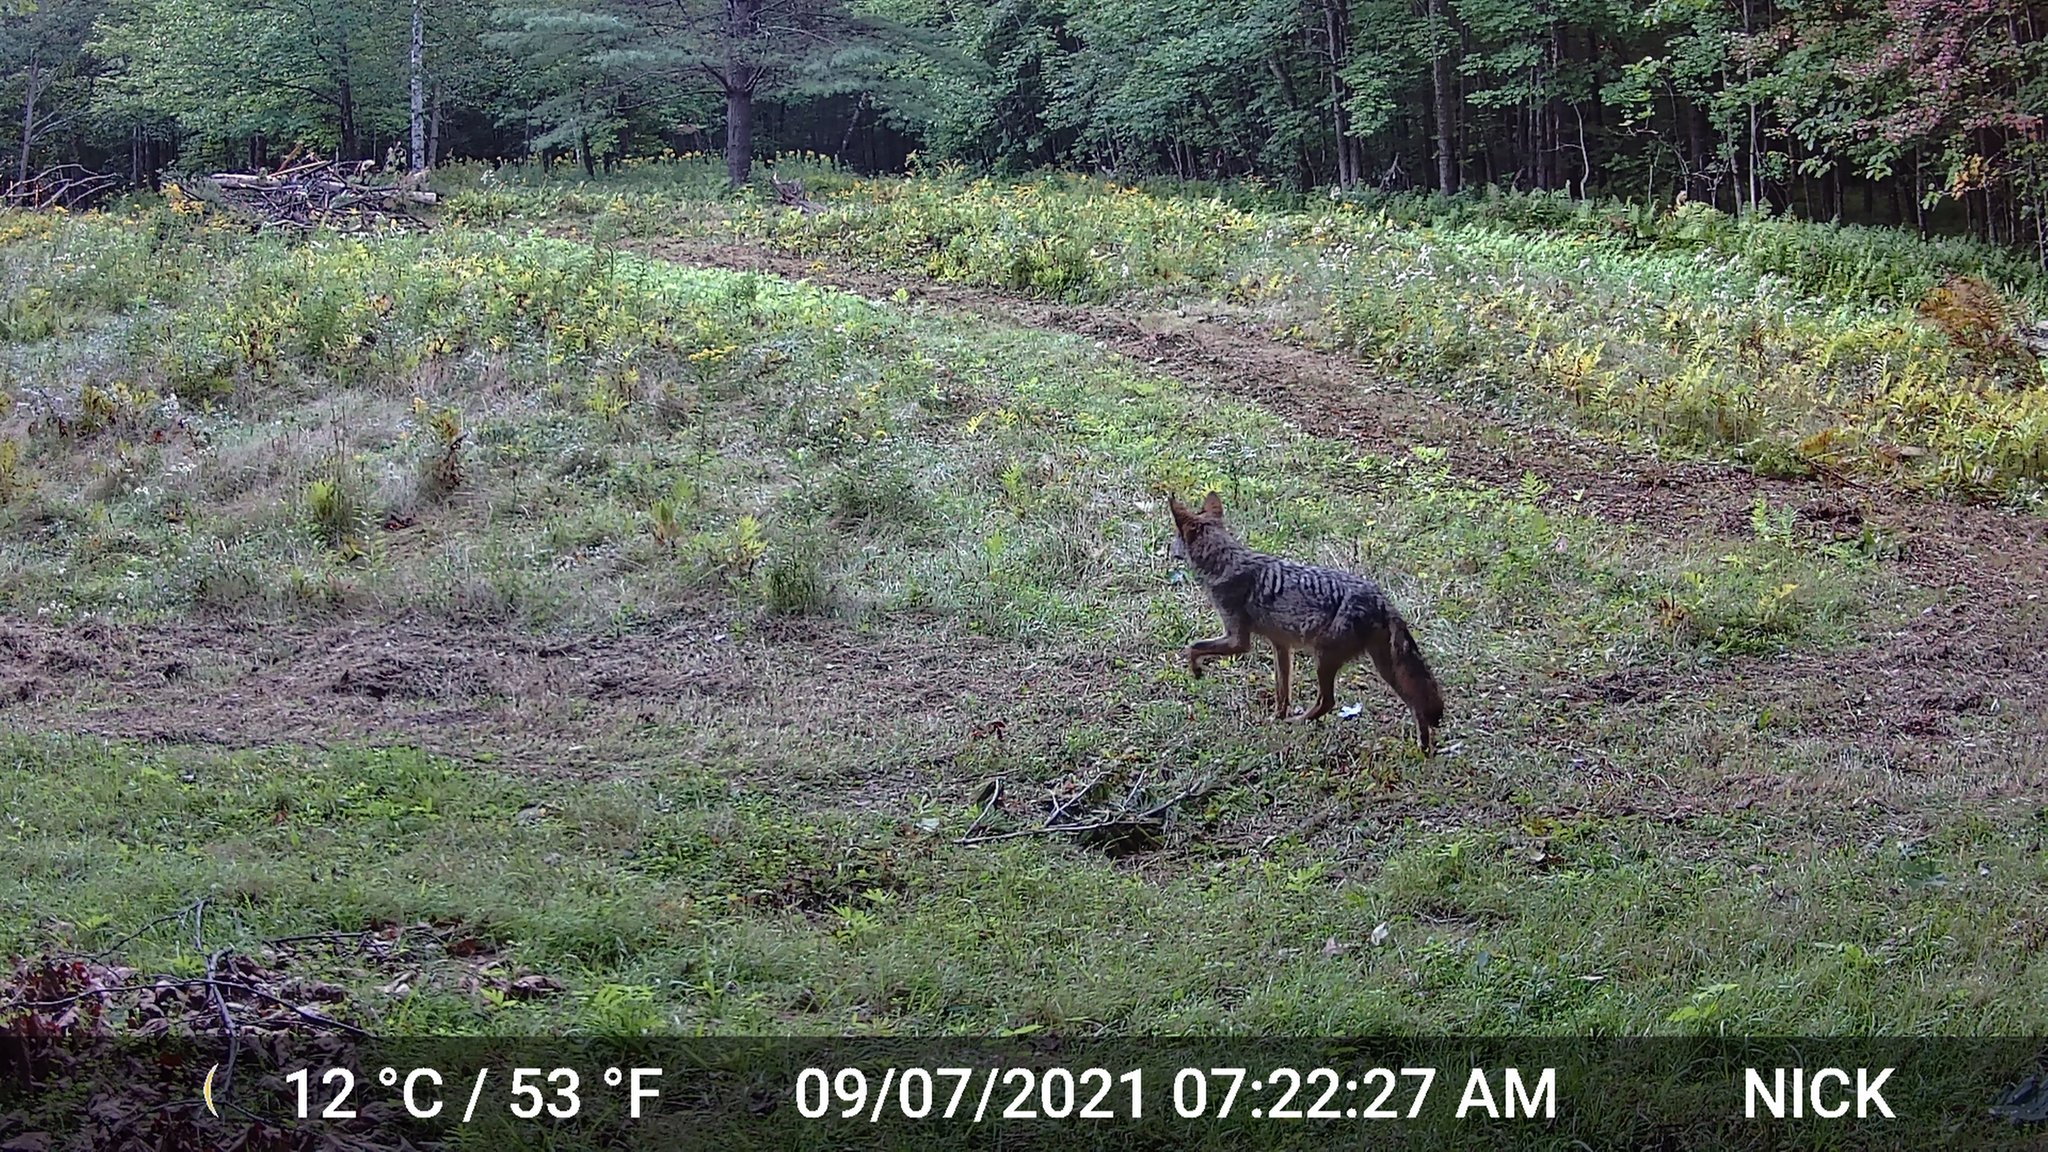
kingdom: Animalia
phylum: Chordata
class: Mammalia
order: Carnivora
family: Canidae
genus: Canis
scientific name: Canis latrans
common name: Coyote
